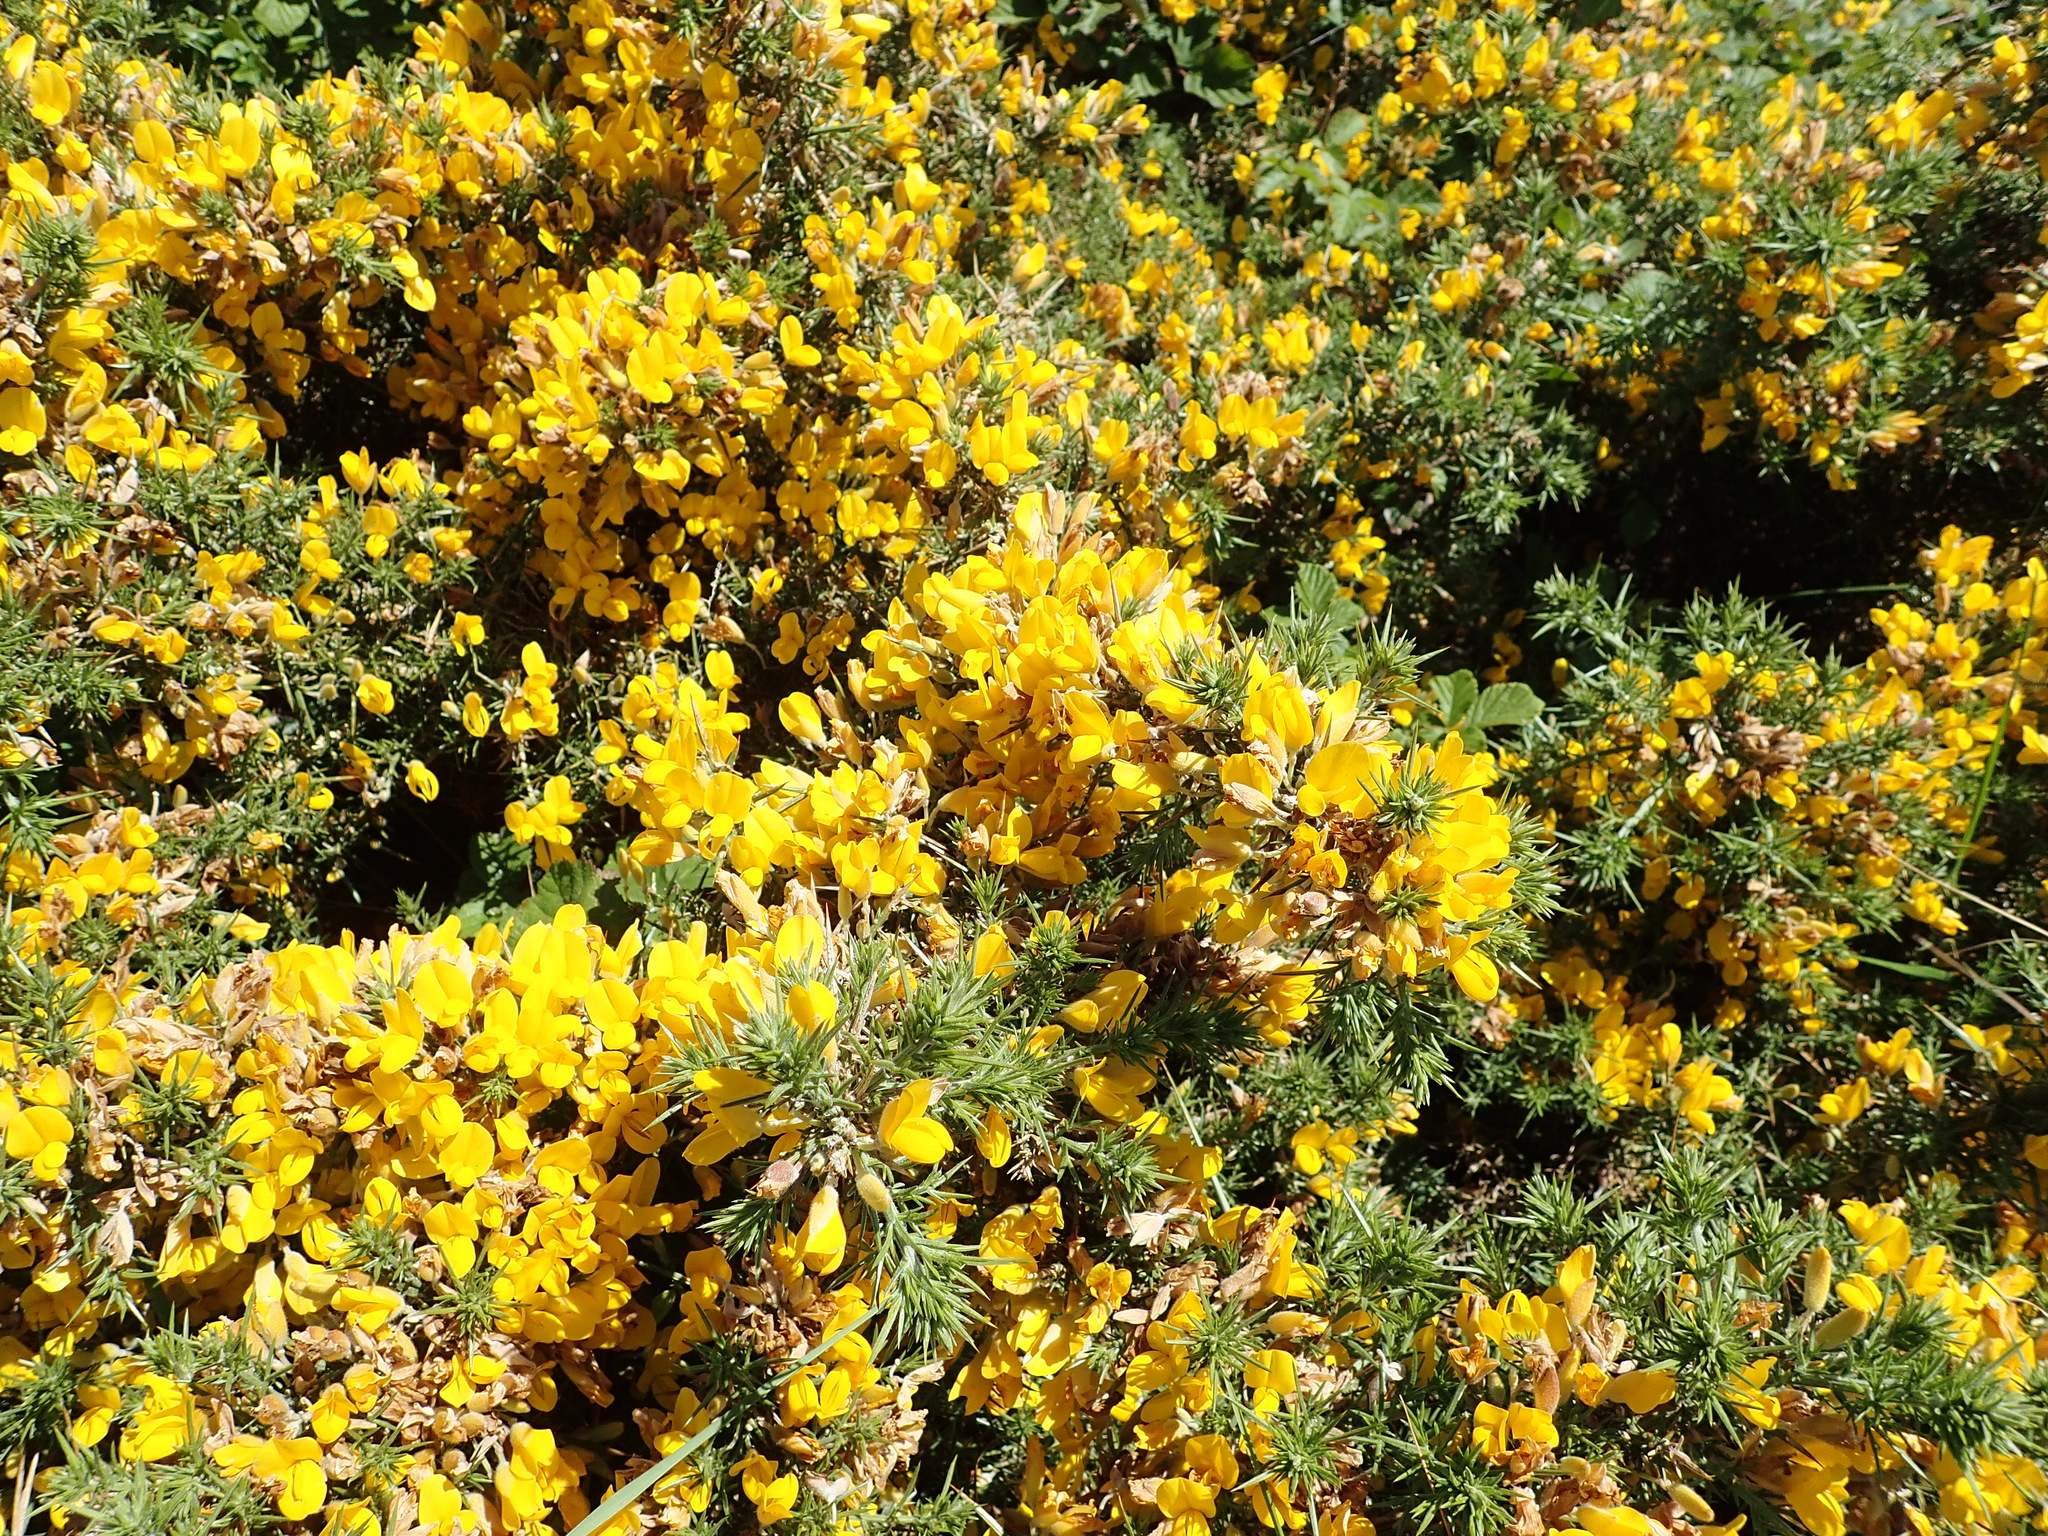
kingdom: Plantae
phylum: Tracheophyta
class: Magnoliopsida
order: Fabales
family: Fabaceae
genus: Ulex
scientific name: Ulex europaeus
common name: Common gorse
